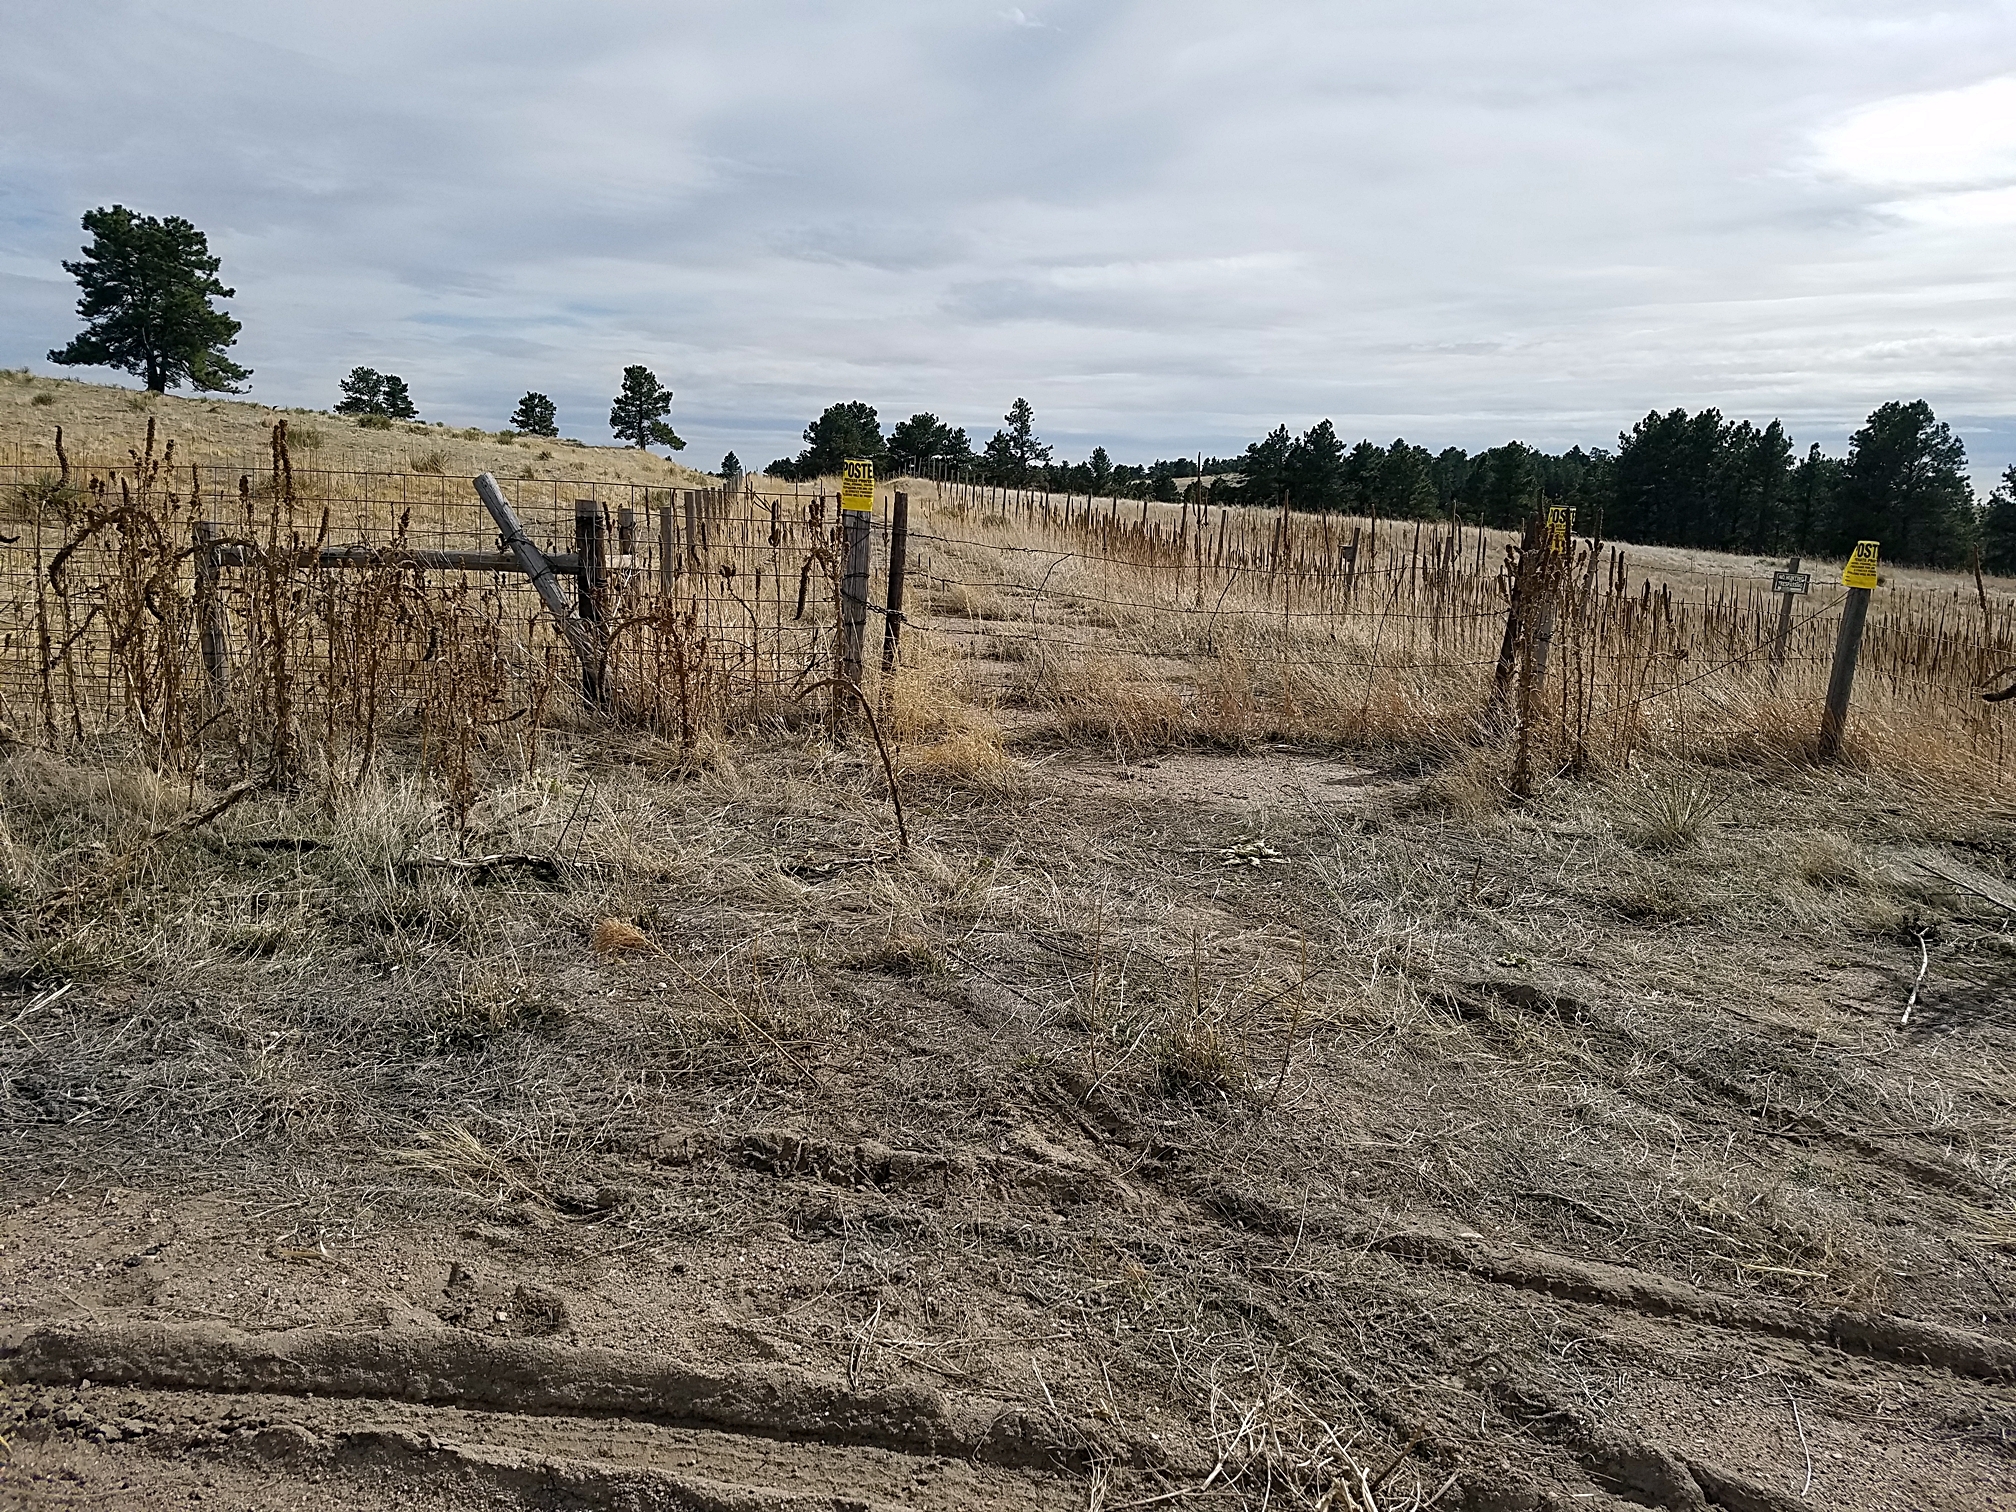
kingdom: Plantae
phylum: Tracheophyta
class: Magnoliopsida
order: Lamiales
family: Scrophulariaceae
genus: Verbascum
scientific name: Verbascum thapsus
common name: Common mullein
